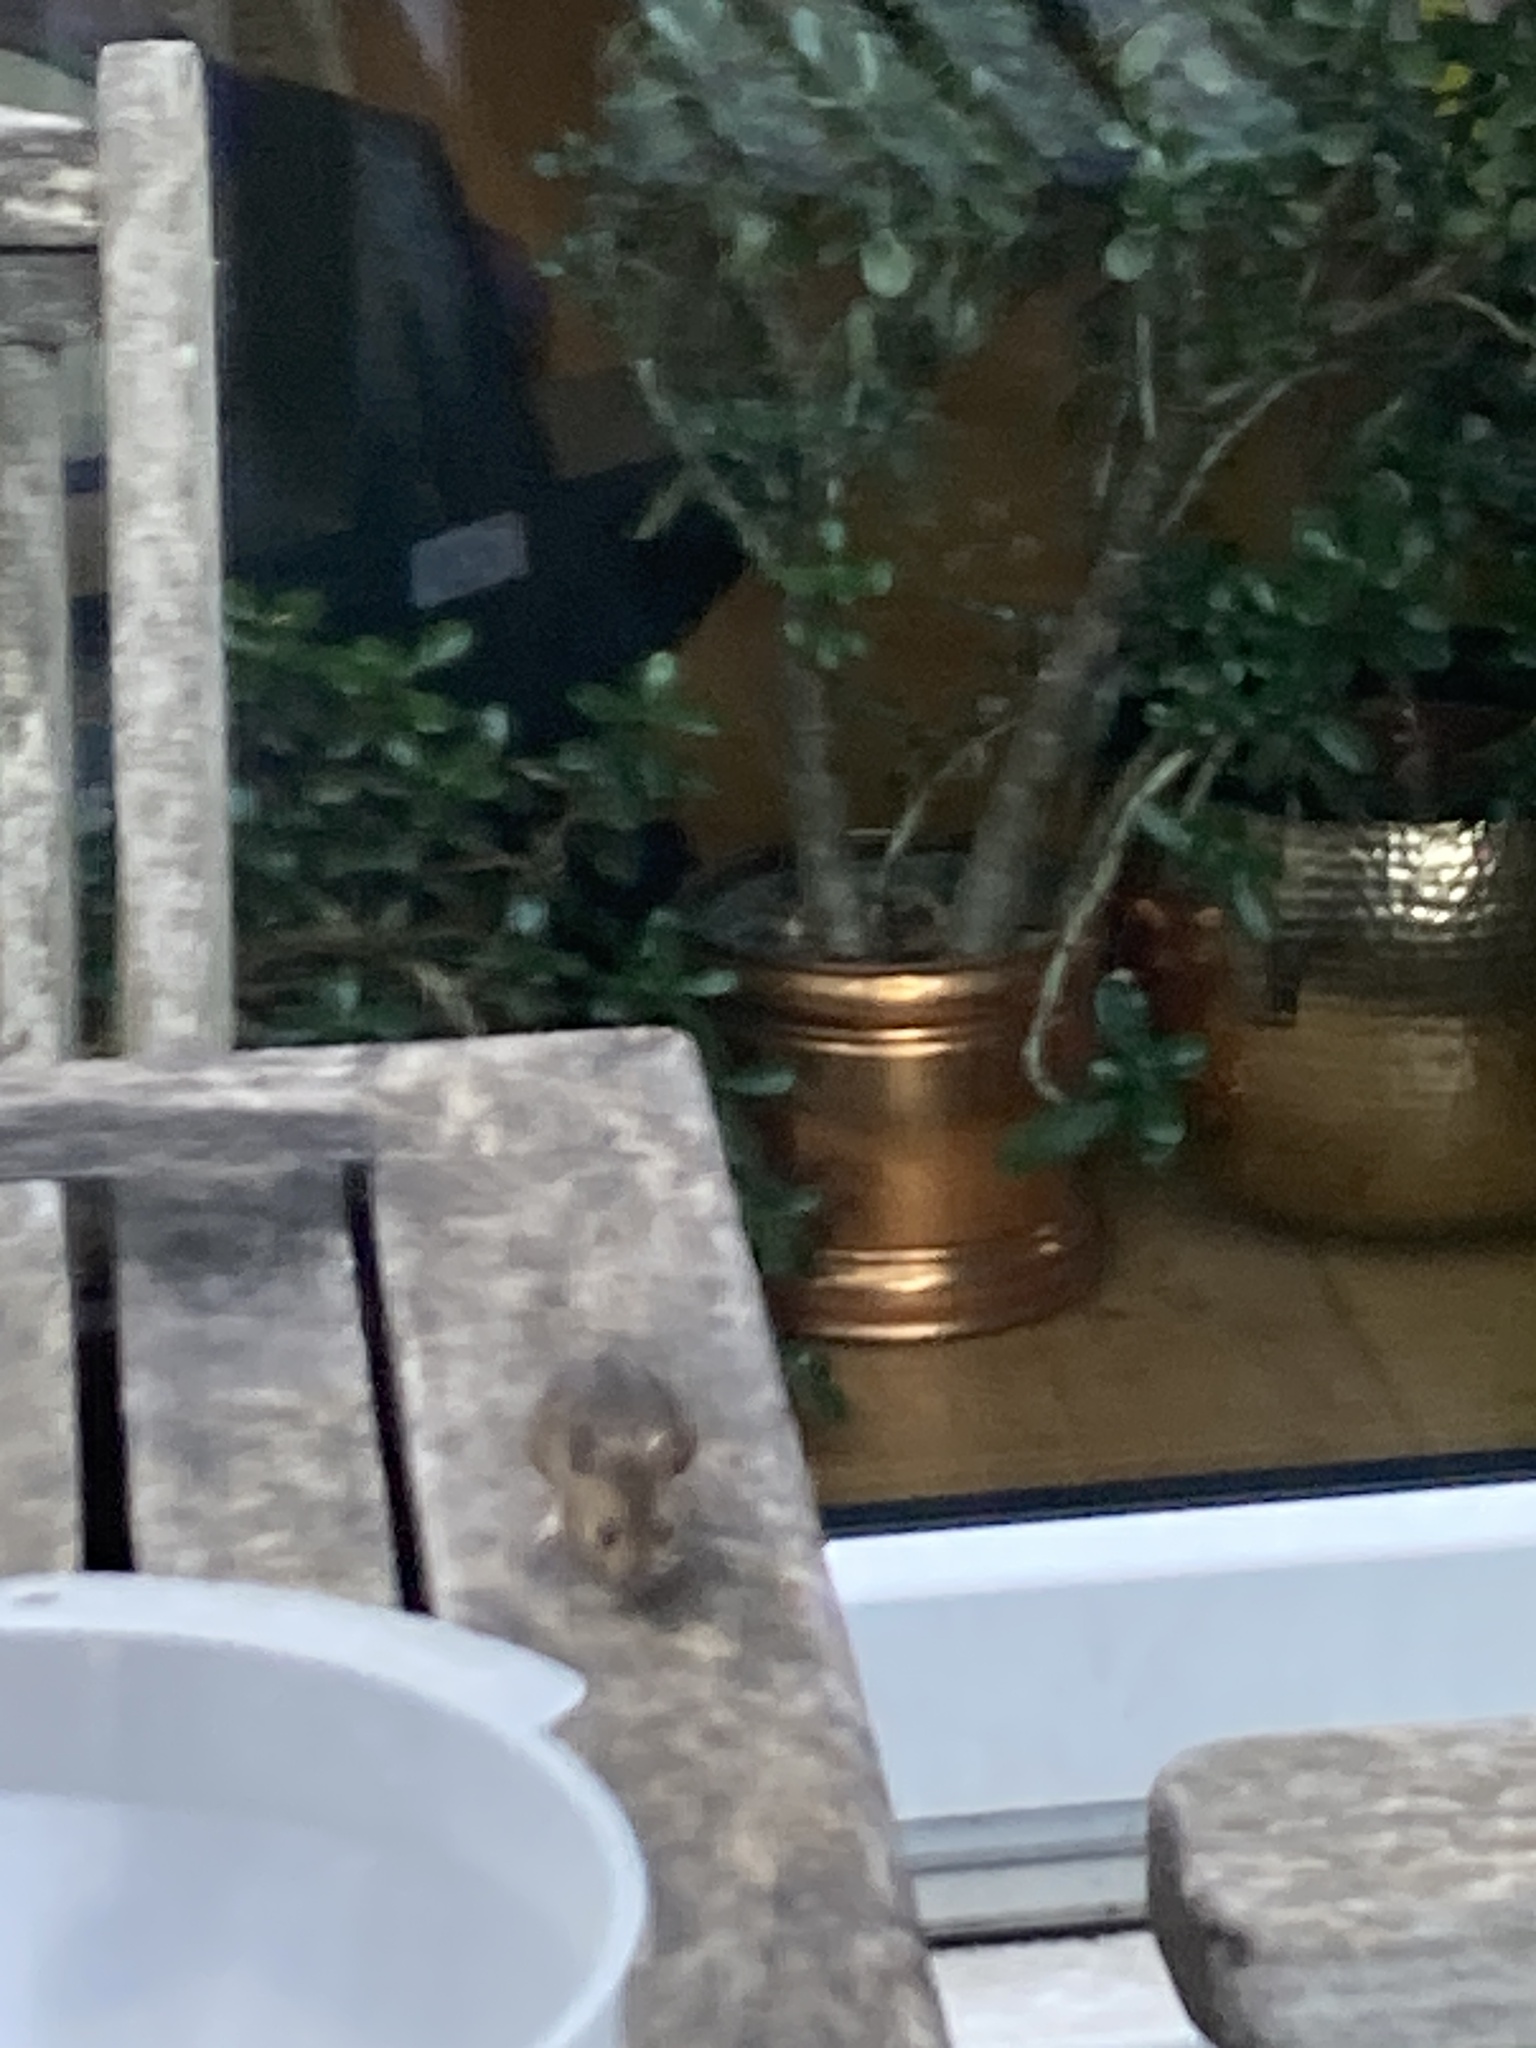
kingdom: Animalia
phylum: Chordata
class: Mammalia
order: Rodentia
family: Muridae
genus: Apodemus
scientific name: Apodemus sylvaticus
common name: Wood mouse
